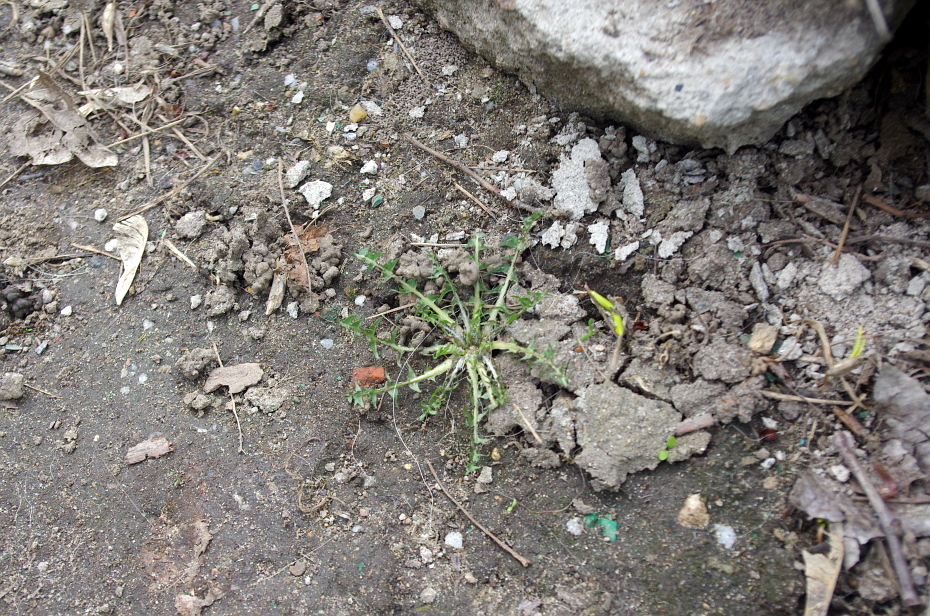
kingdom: Plantae
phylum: Tracheophyta
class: Magnoliopsida
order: Asterales
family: Asteraceae
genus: Taraxacum
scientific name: Taraxacum officinale
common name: Common dandelion
